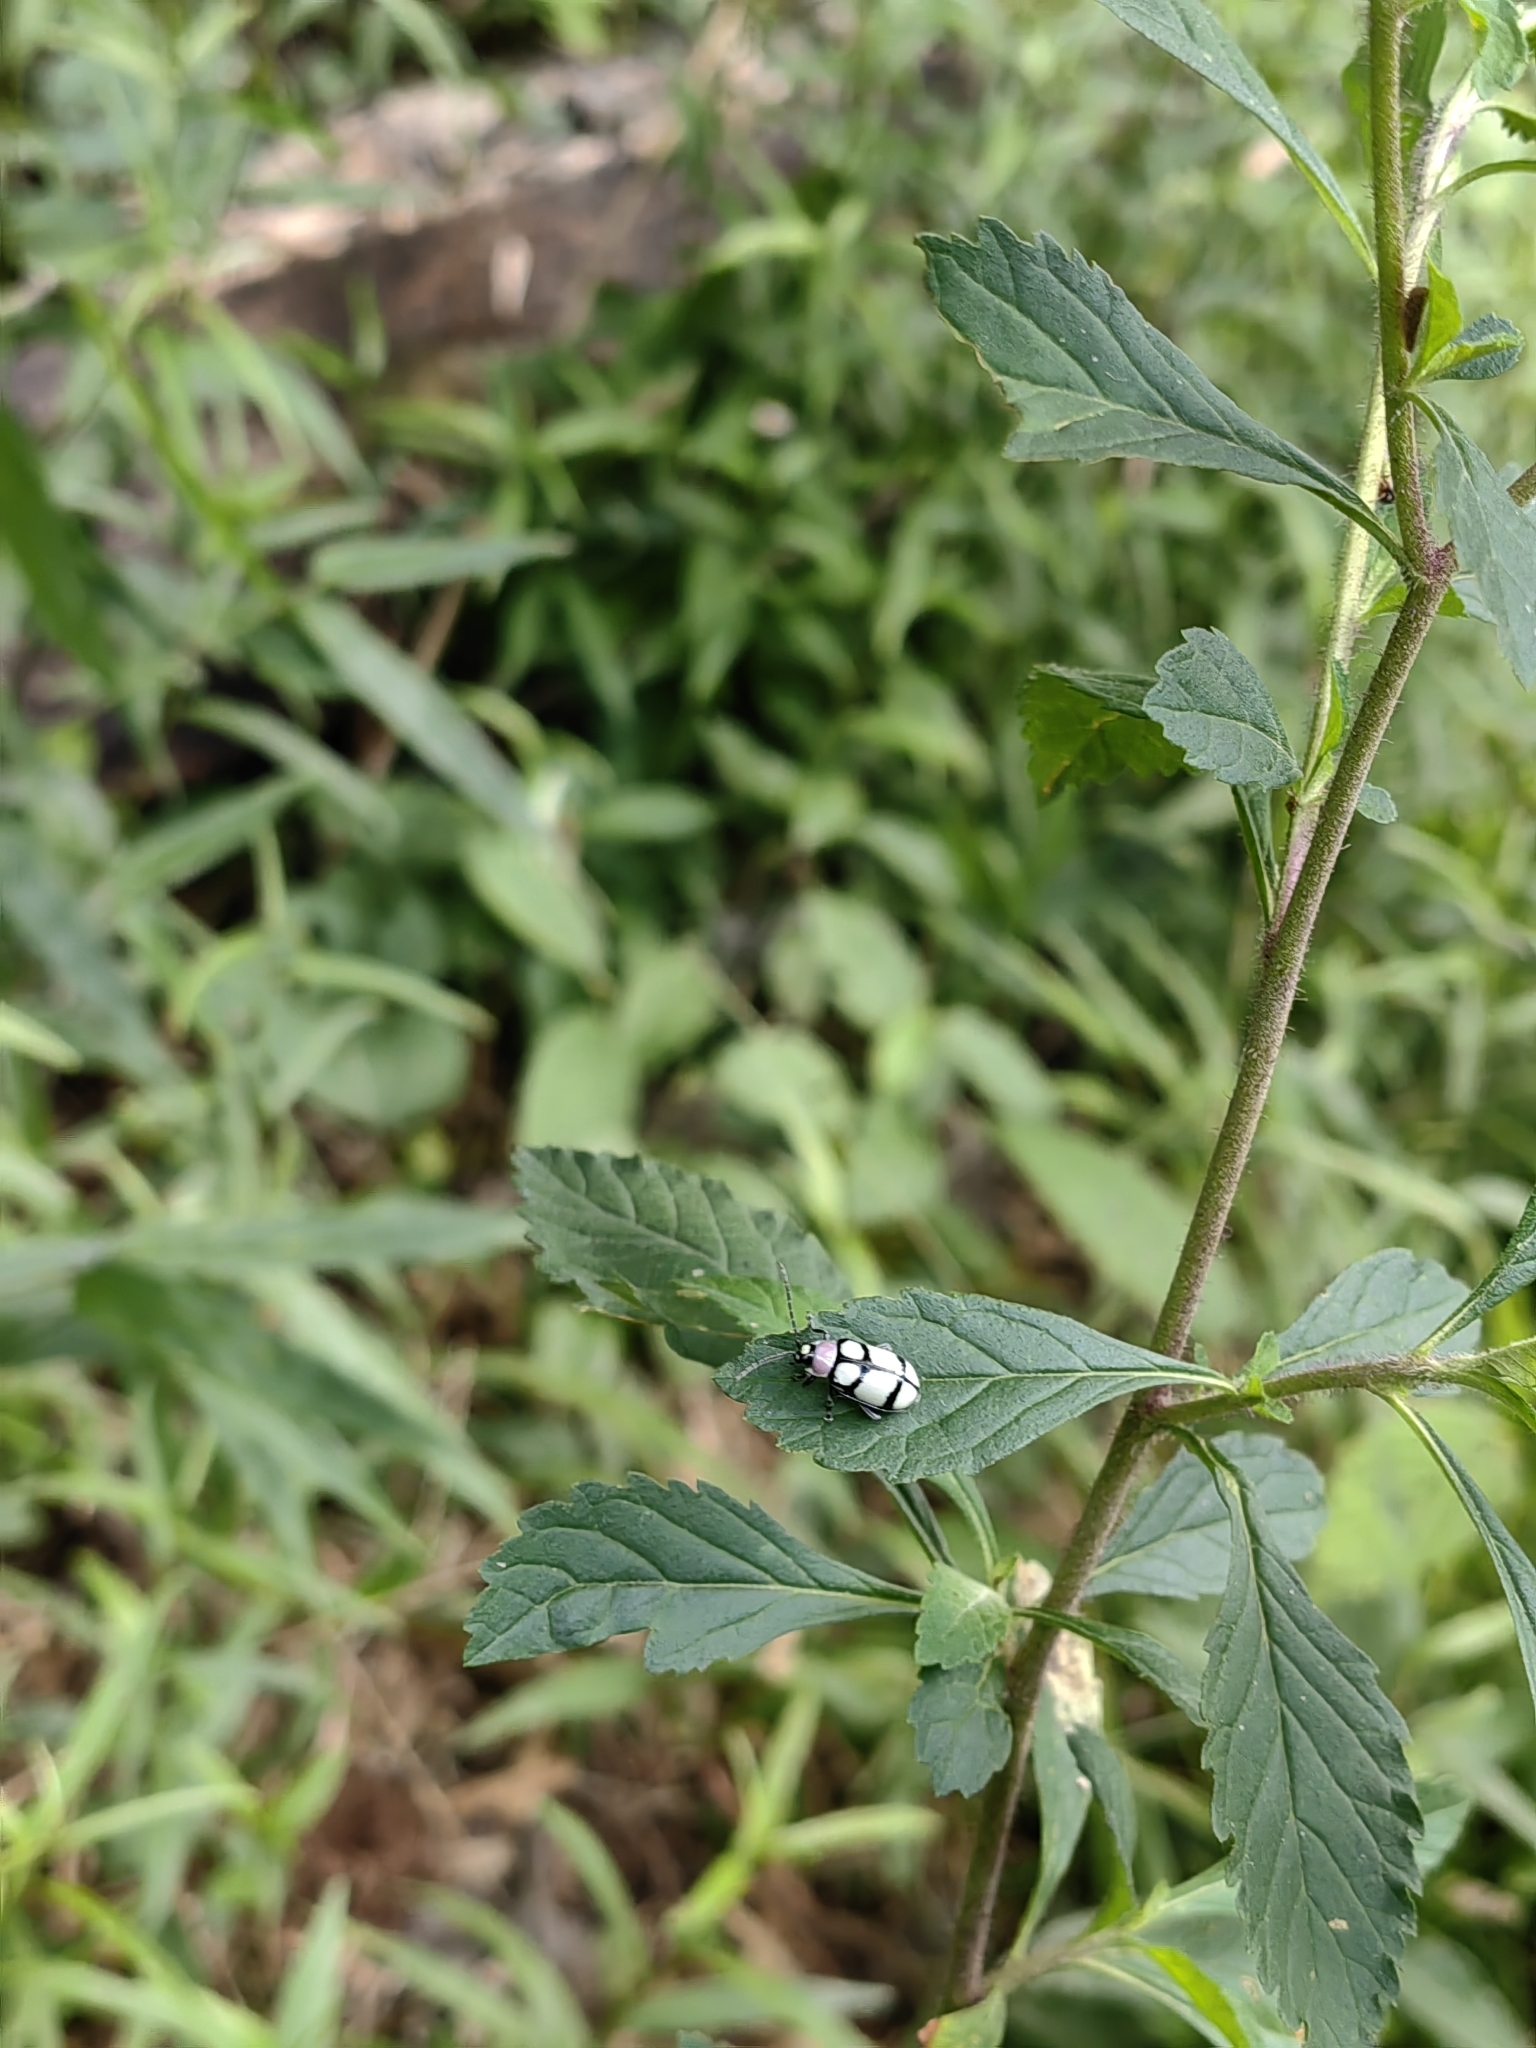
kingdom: Animalia
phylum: Arthropoda
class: Insecta
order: Coleoptera
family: Chrysomelidae
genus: Omophoita
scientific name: Omophoita
